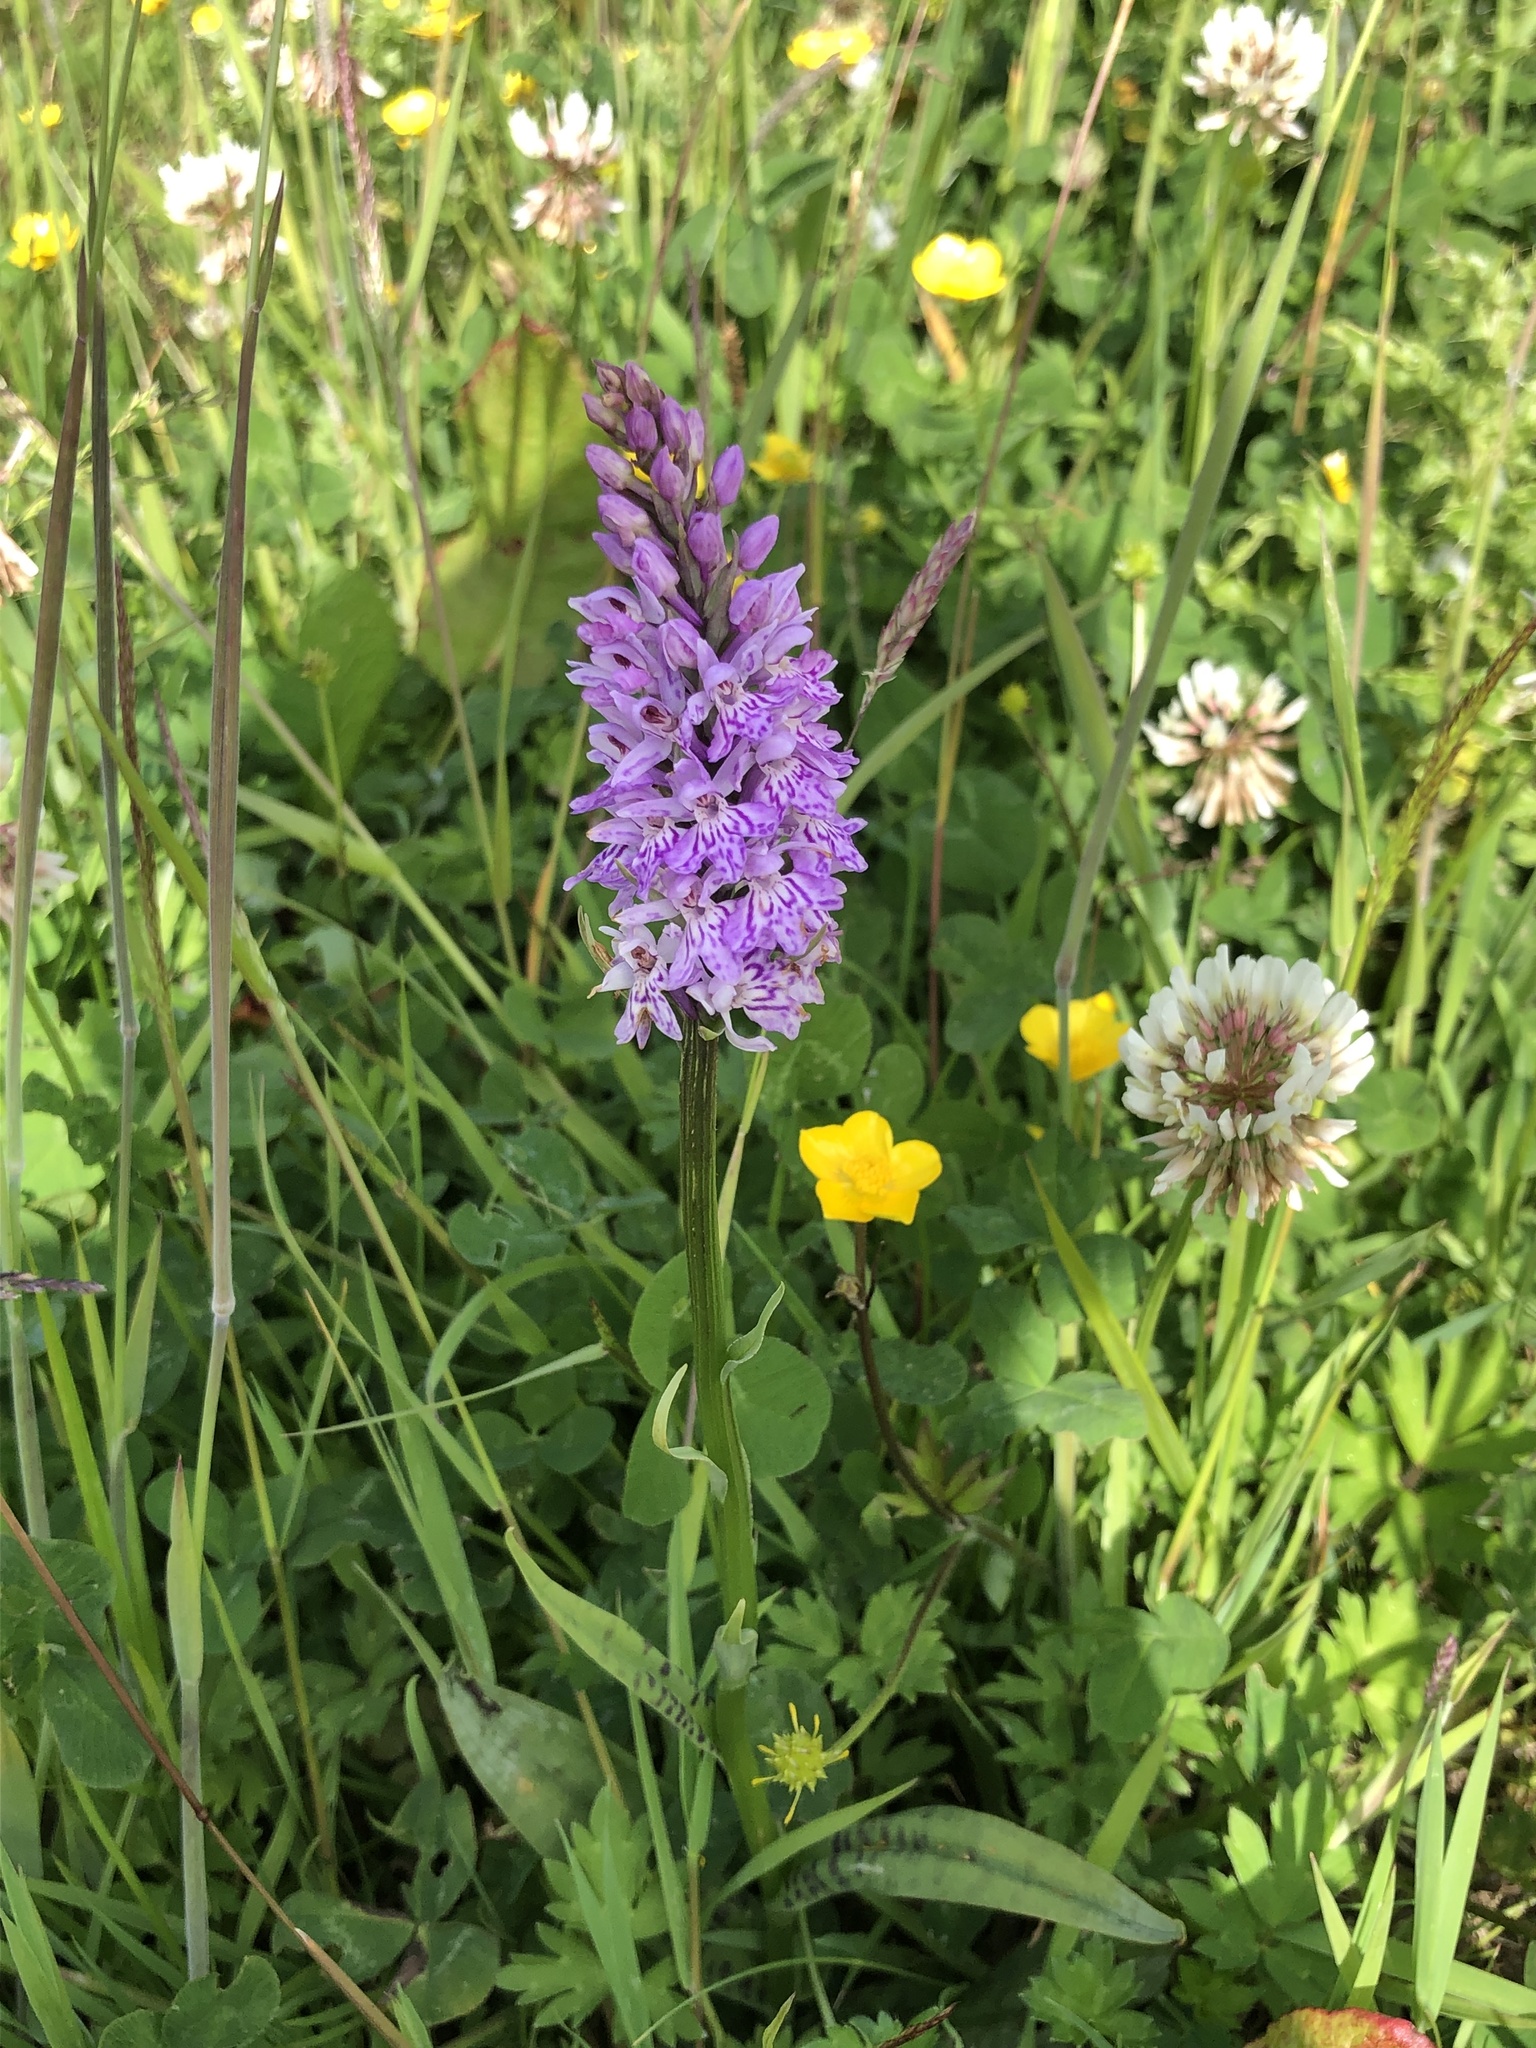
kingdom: Plantae
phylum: Tracheophyta
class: Liliopsida
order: Asparagales
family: Orchidaceae
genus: Dactylorhiza
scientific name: Dactylorhiza maculata
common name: Heath spotted-orchid
